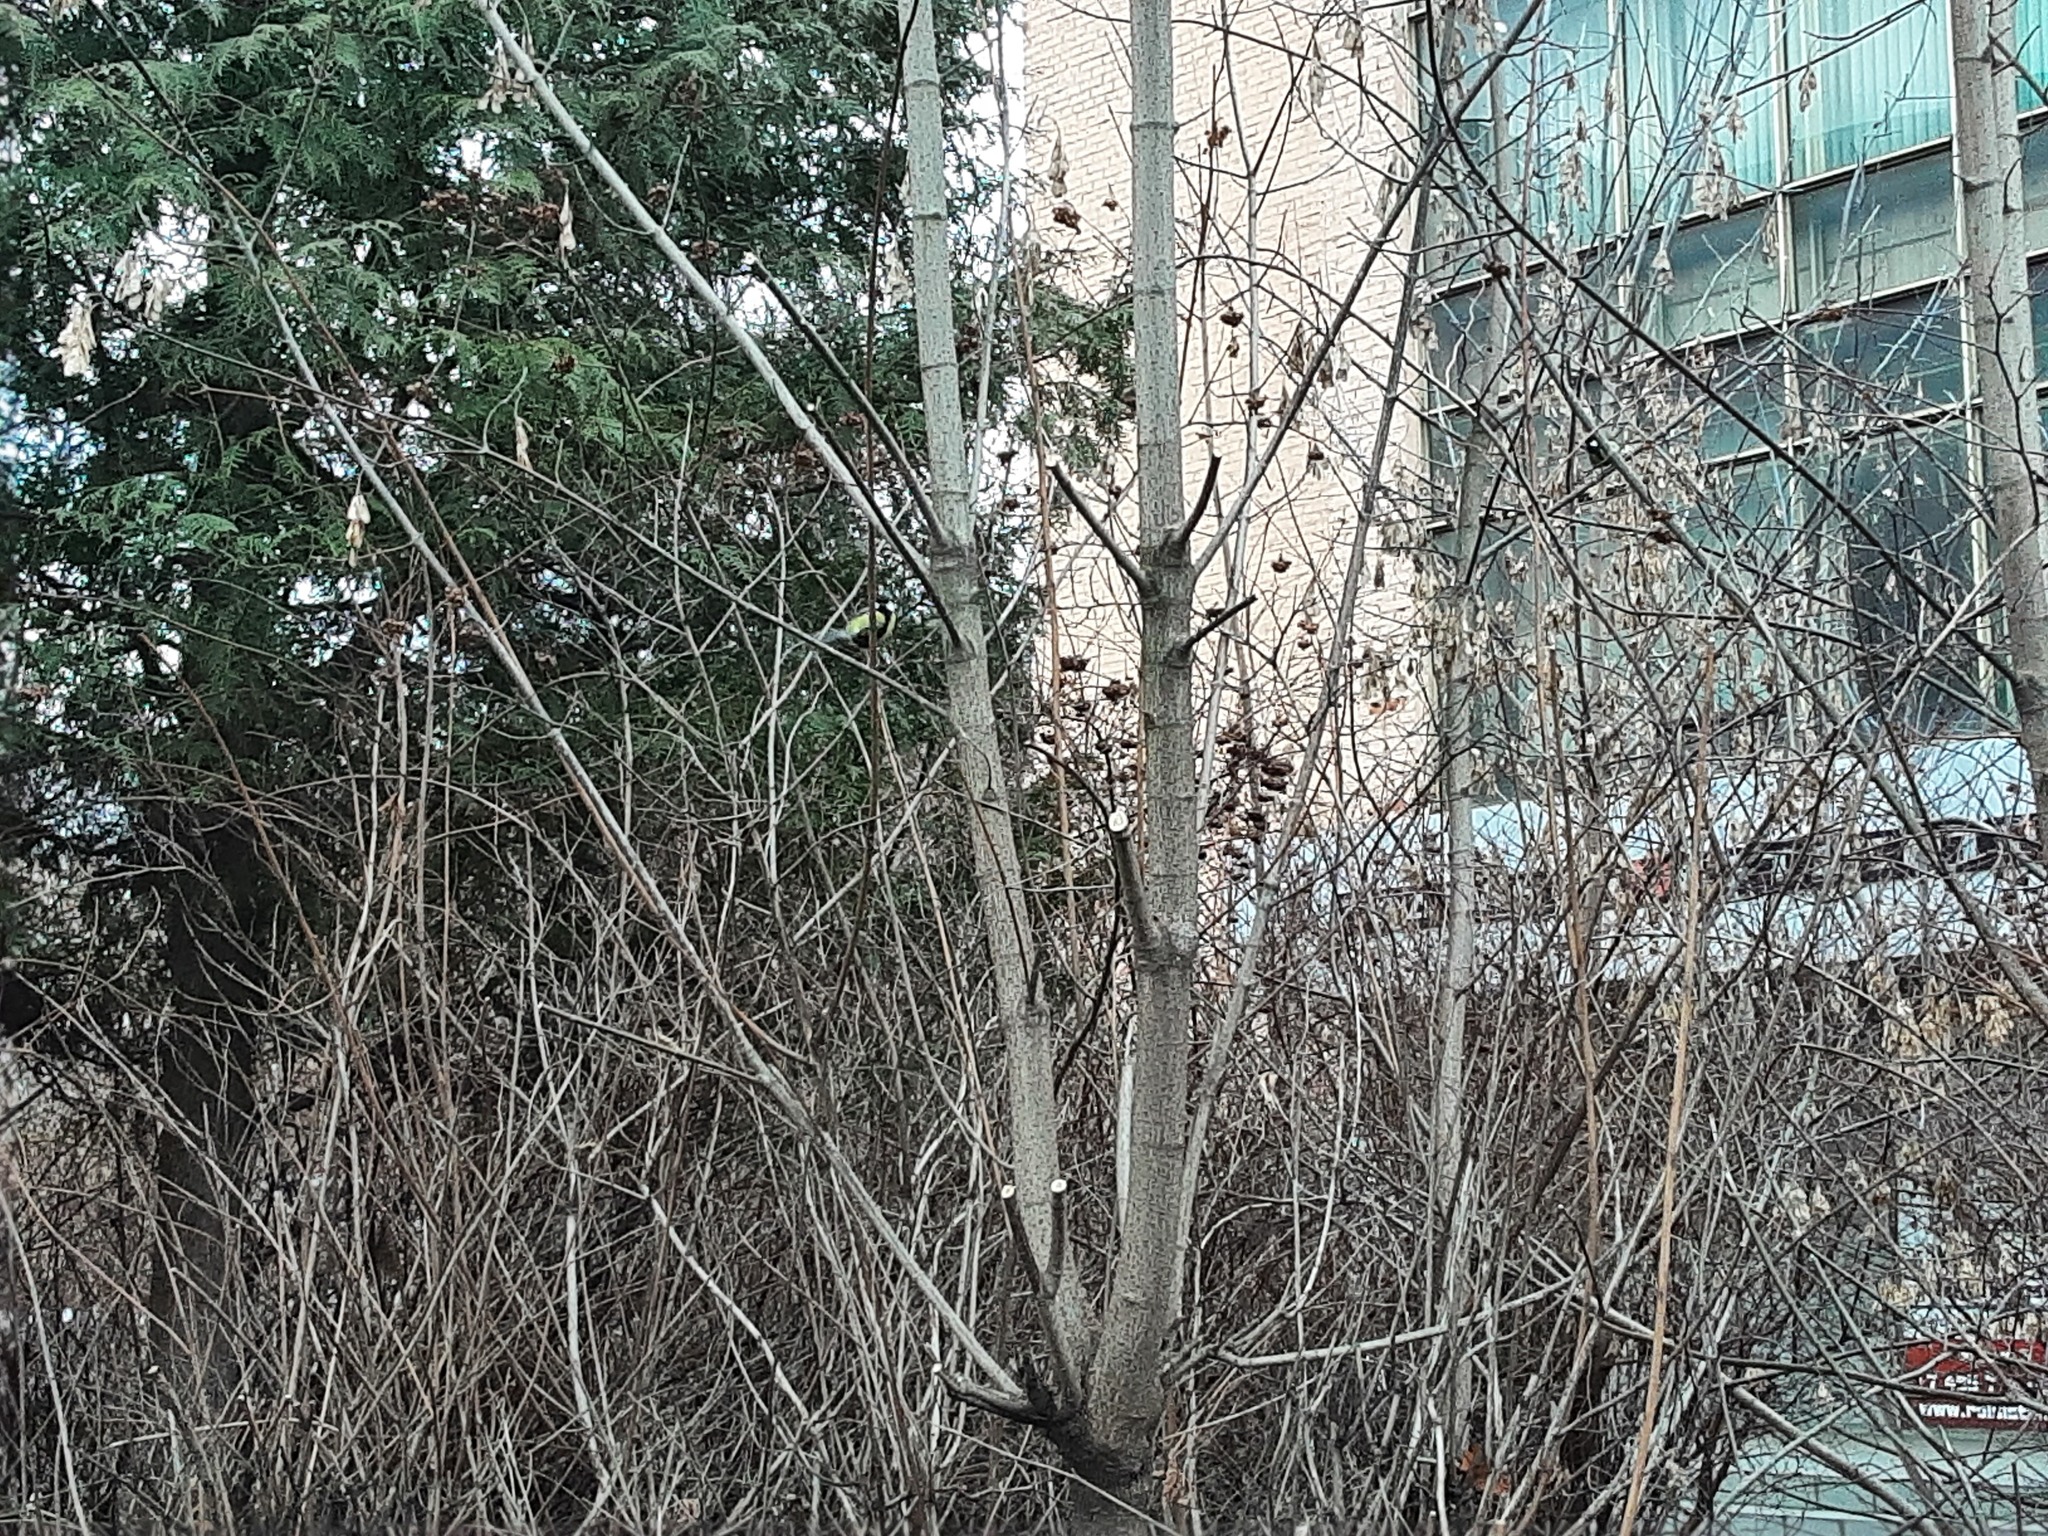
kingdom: Animalia
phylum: Chordata
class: Aves
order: Passeriformes
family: Paridae
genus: Parus
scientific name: Parus major
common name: Great tit
